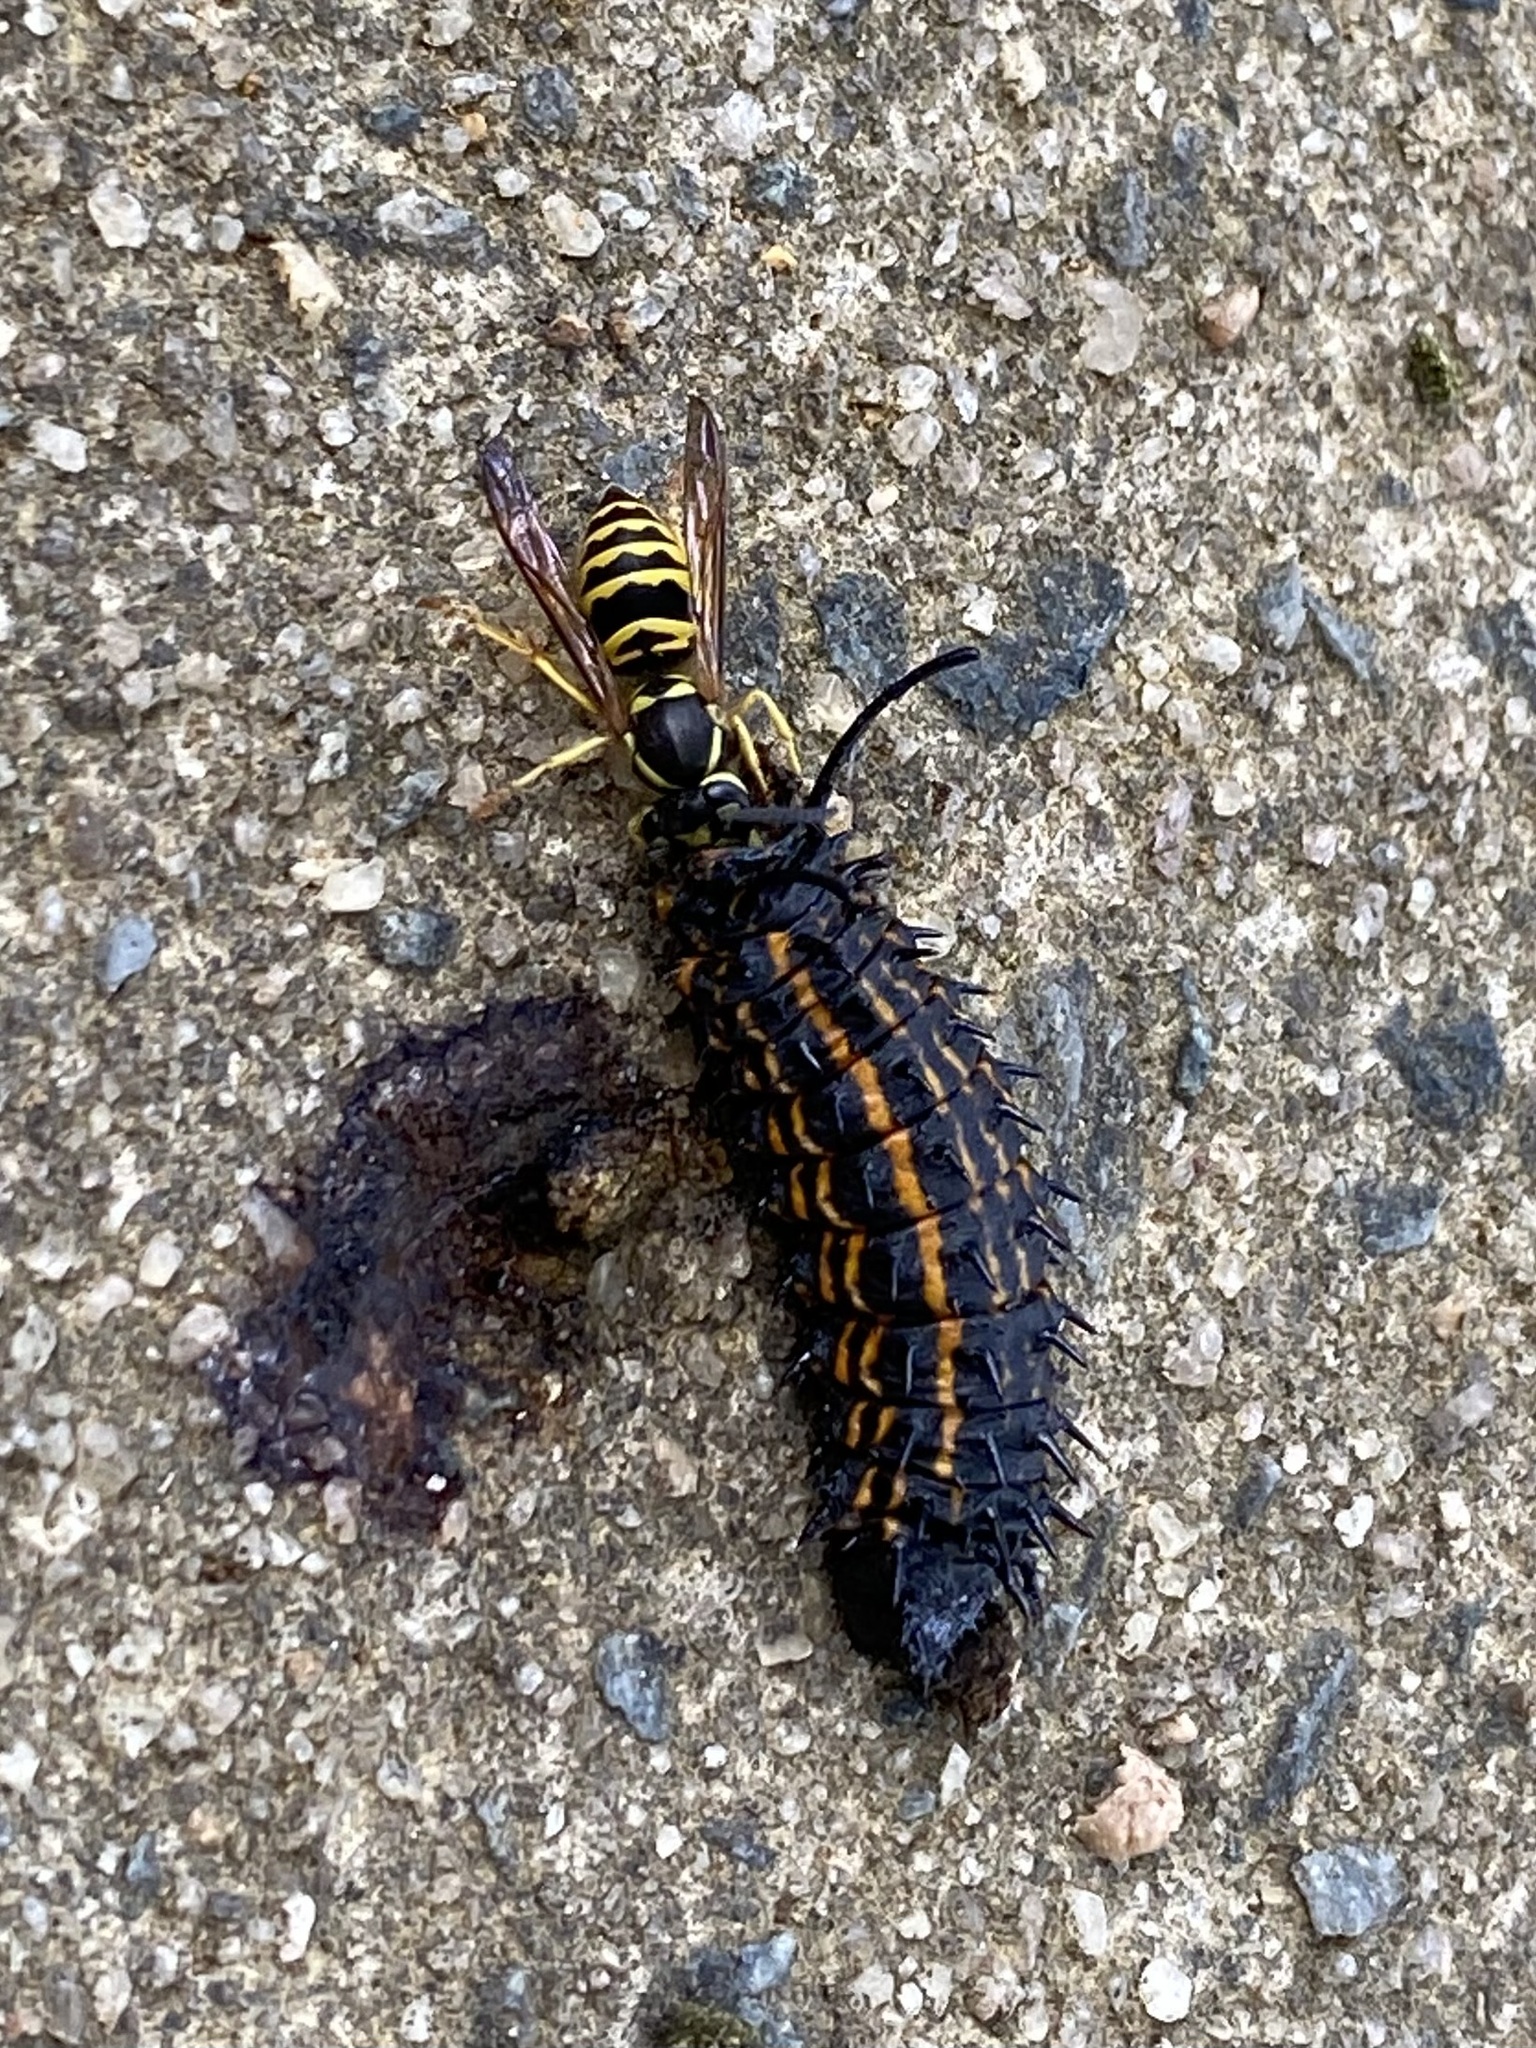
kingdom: Animalia
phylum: Arthropoda
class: Insecta
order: Hymenoptera
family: Vespidae
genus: Vespula
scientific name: Vespula maculifrons
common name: Eastern yellowjacket
